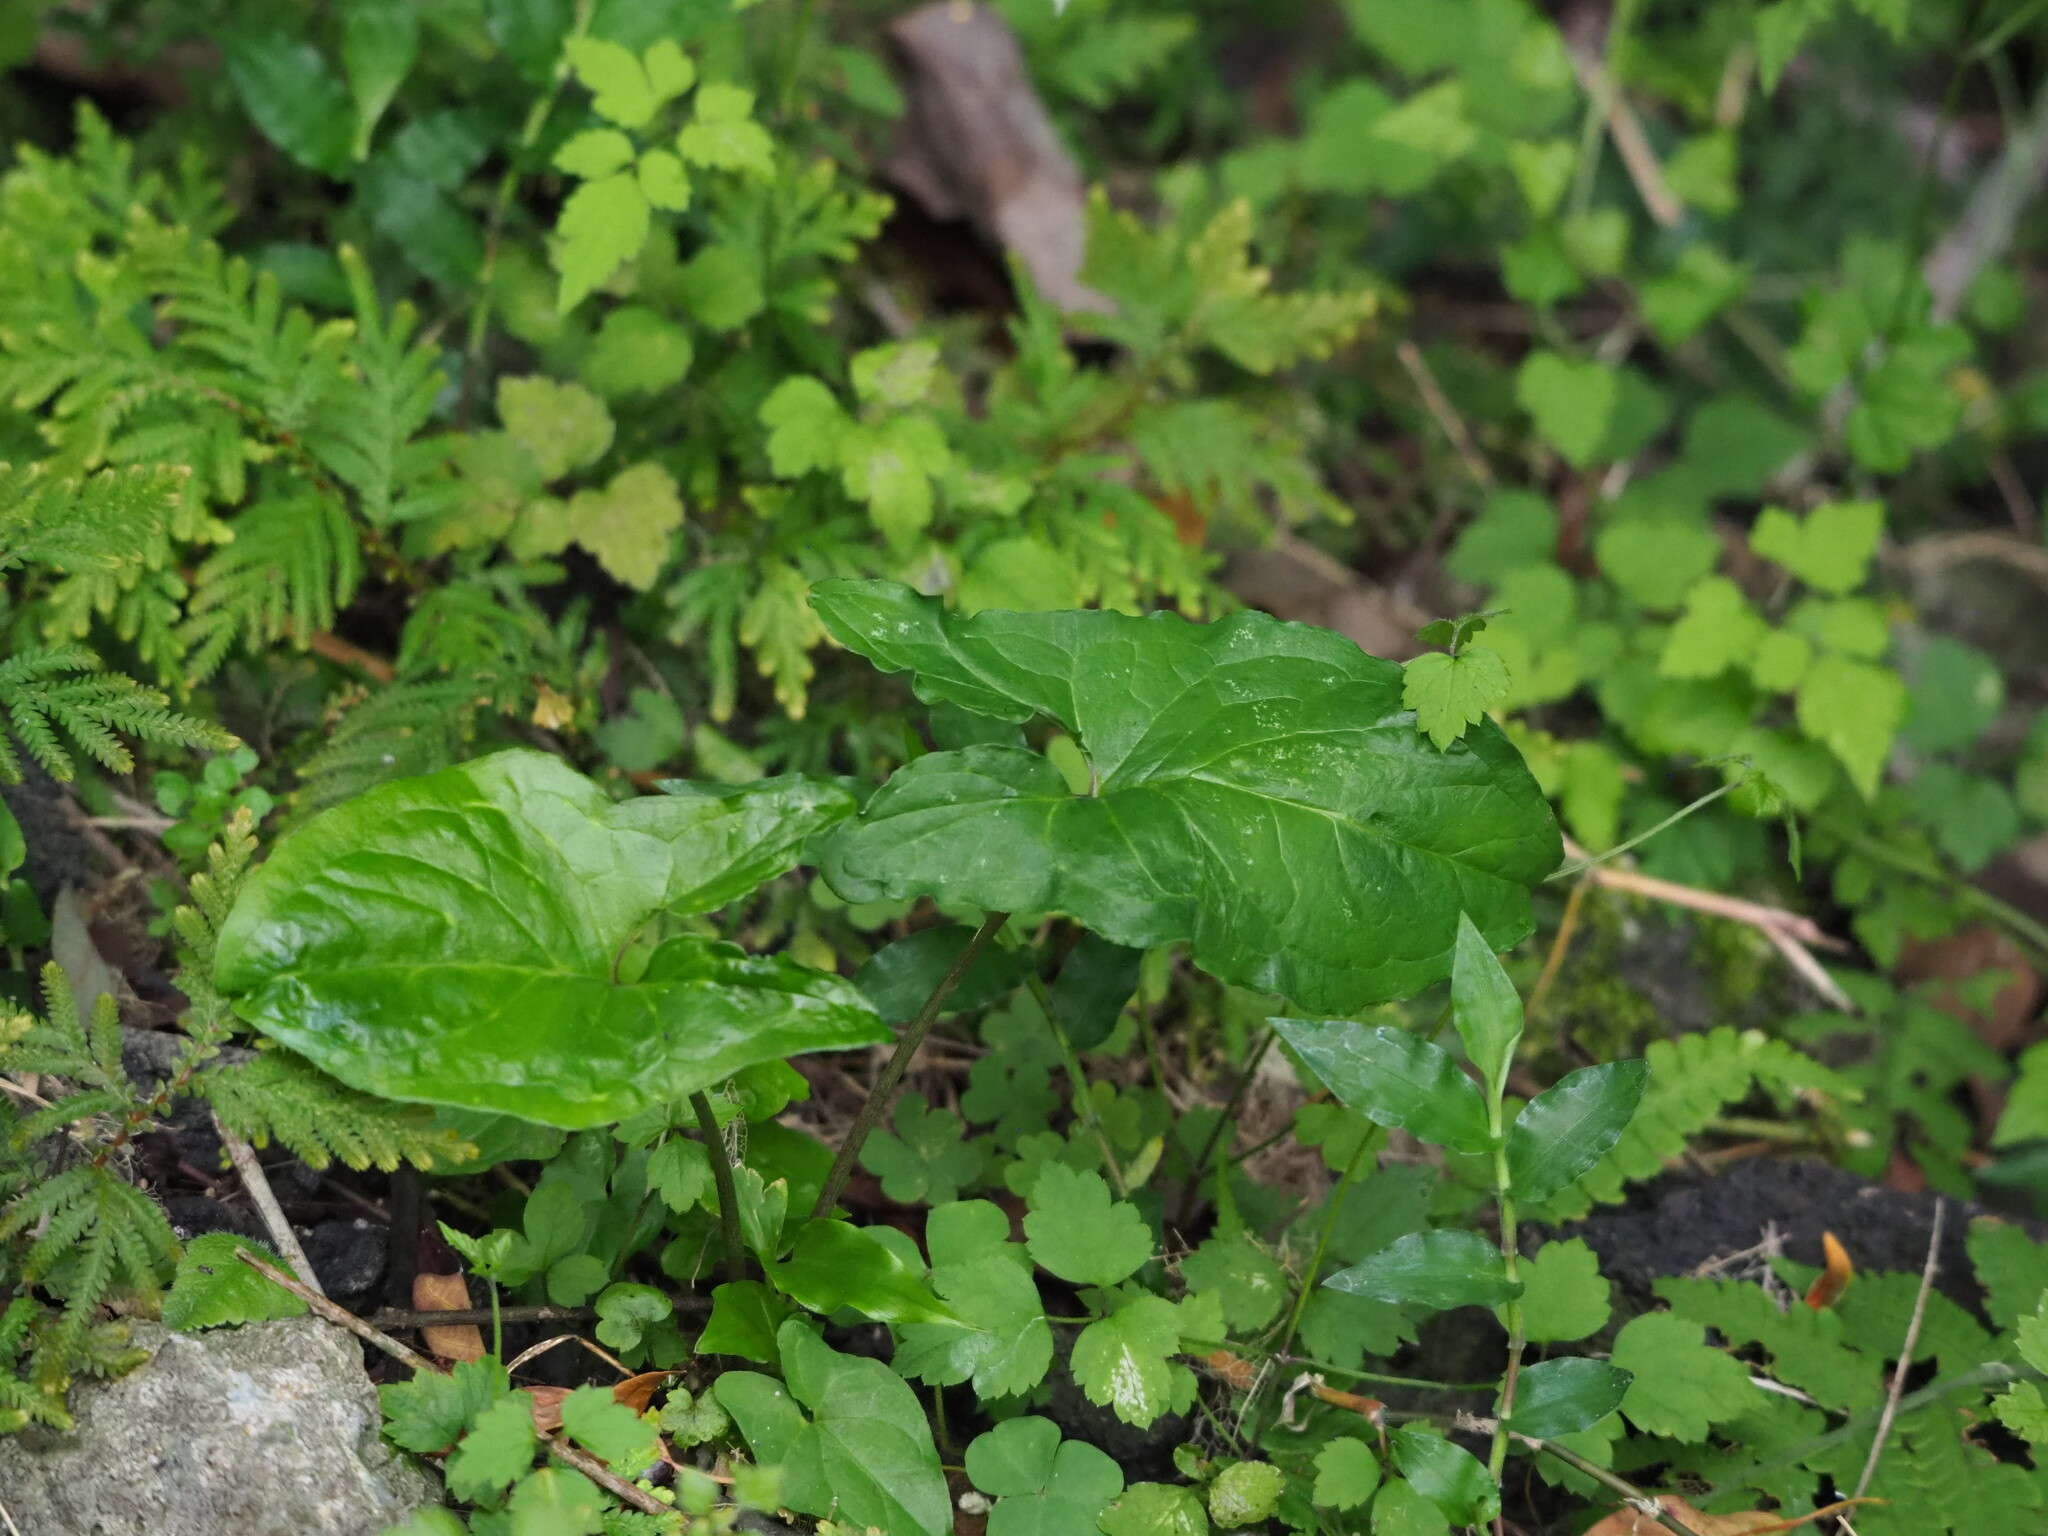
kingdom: Plantae
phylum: Tracheophyta
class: Liliopsida
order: Alismatales
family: Araceae
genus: Typhonium
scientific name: Typhonium blumei
